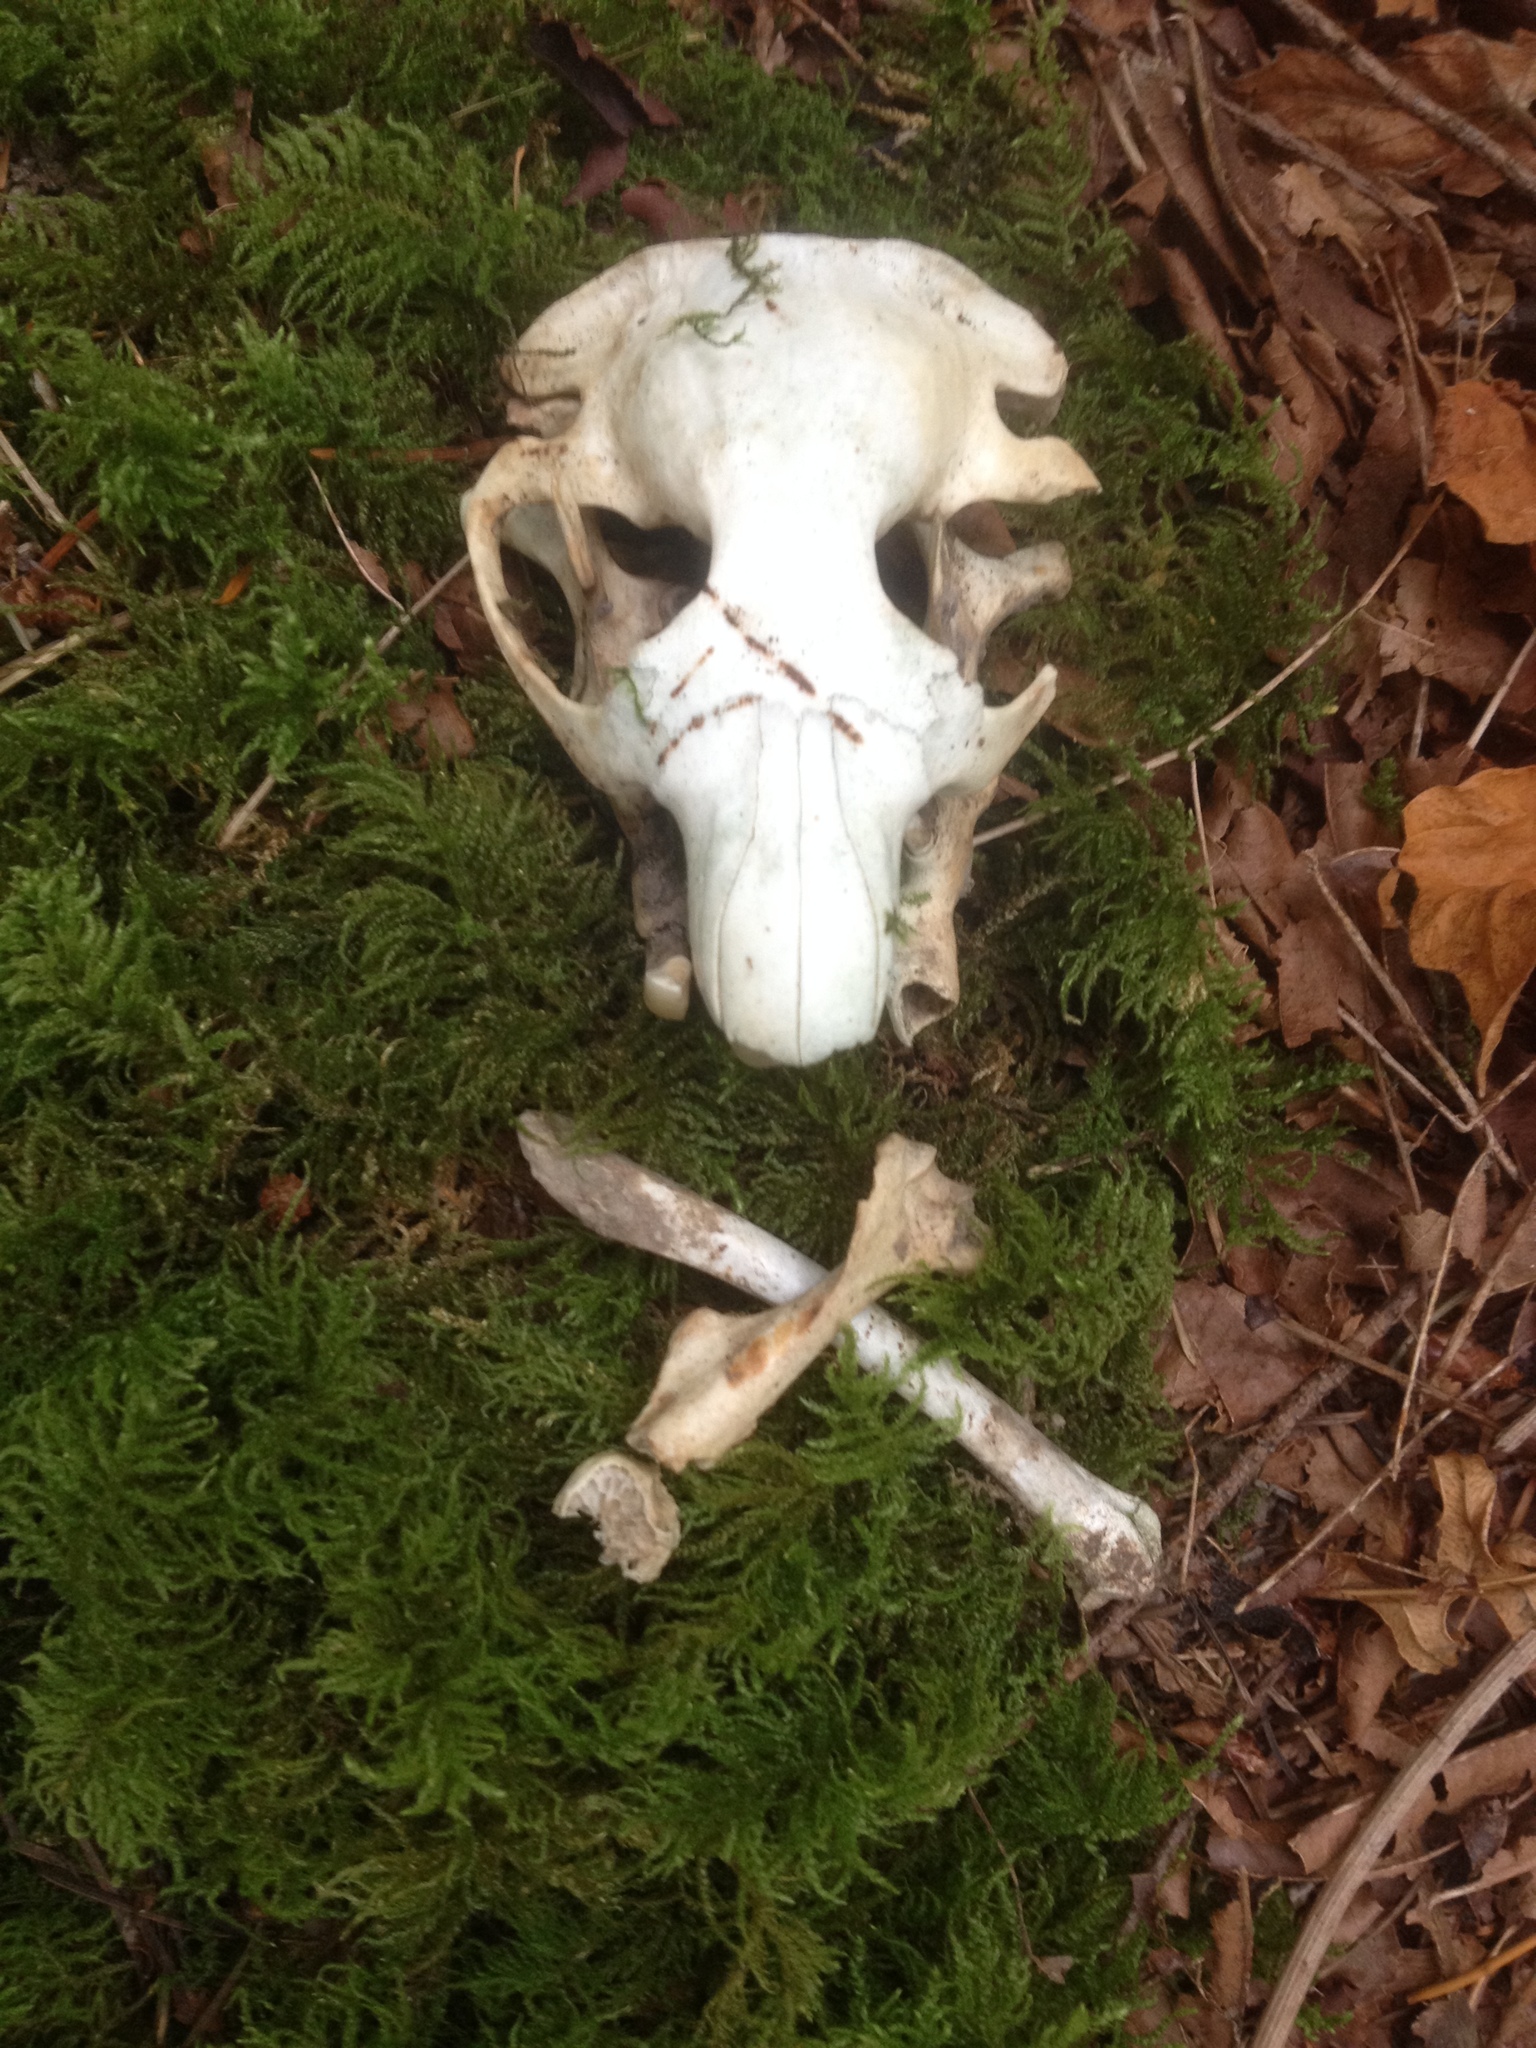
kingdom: Animalia
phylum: Chordata
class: Mammalia
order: Rodentia
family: Aplodontiidae
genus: Aplodontia
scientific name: Aplodontia rufa
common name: Mountain beaver
